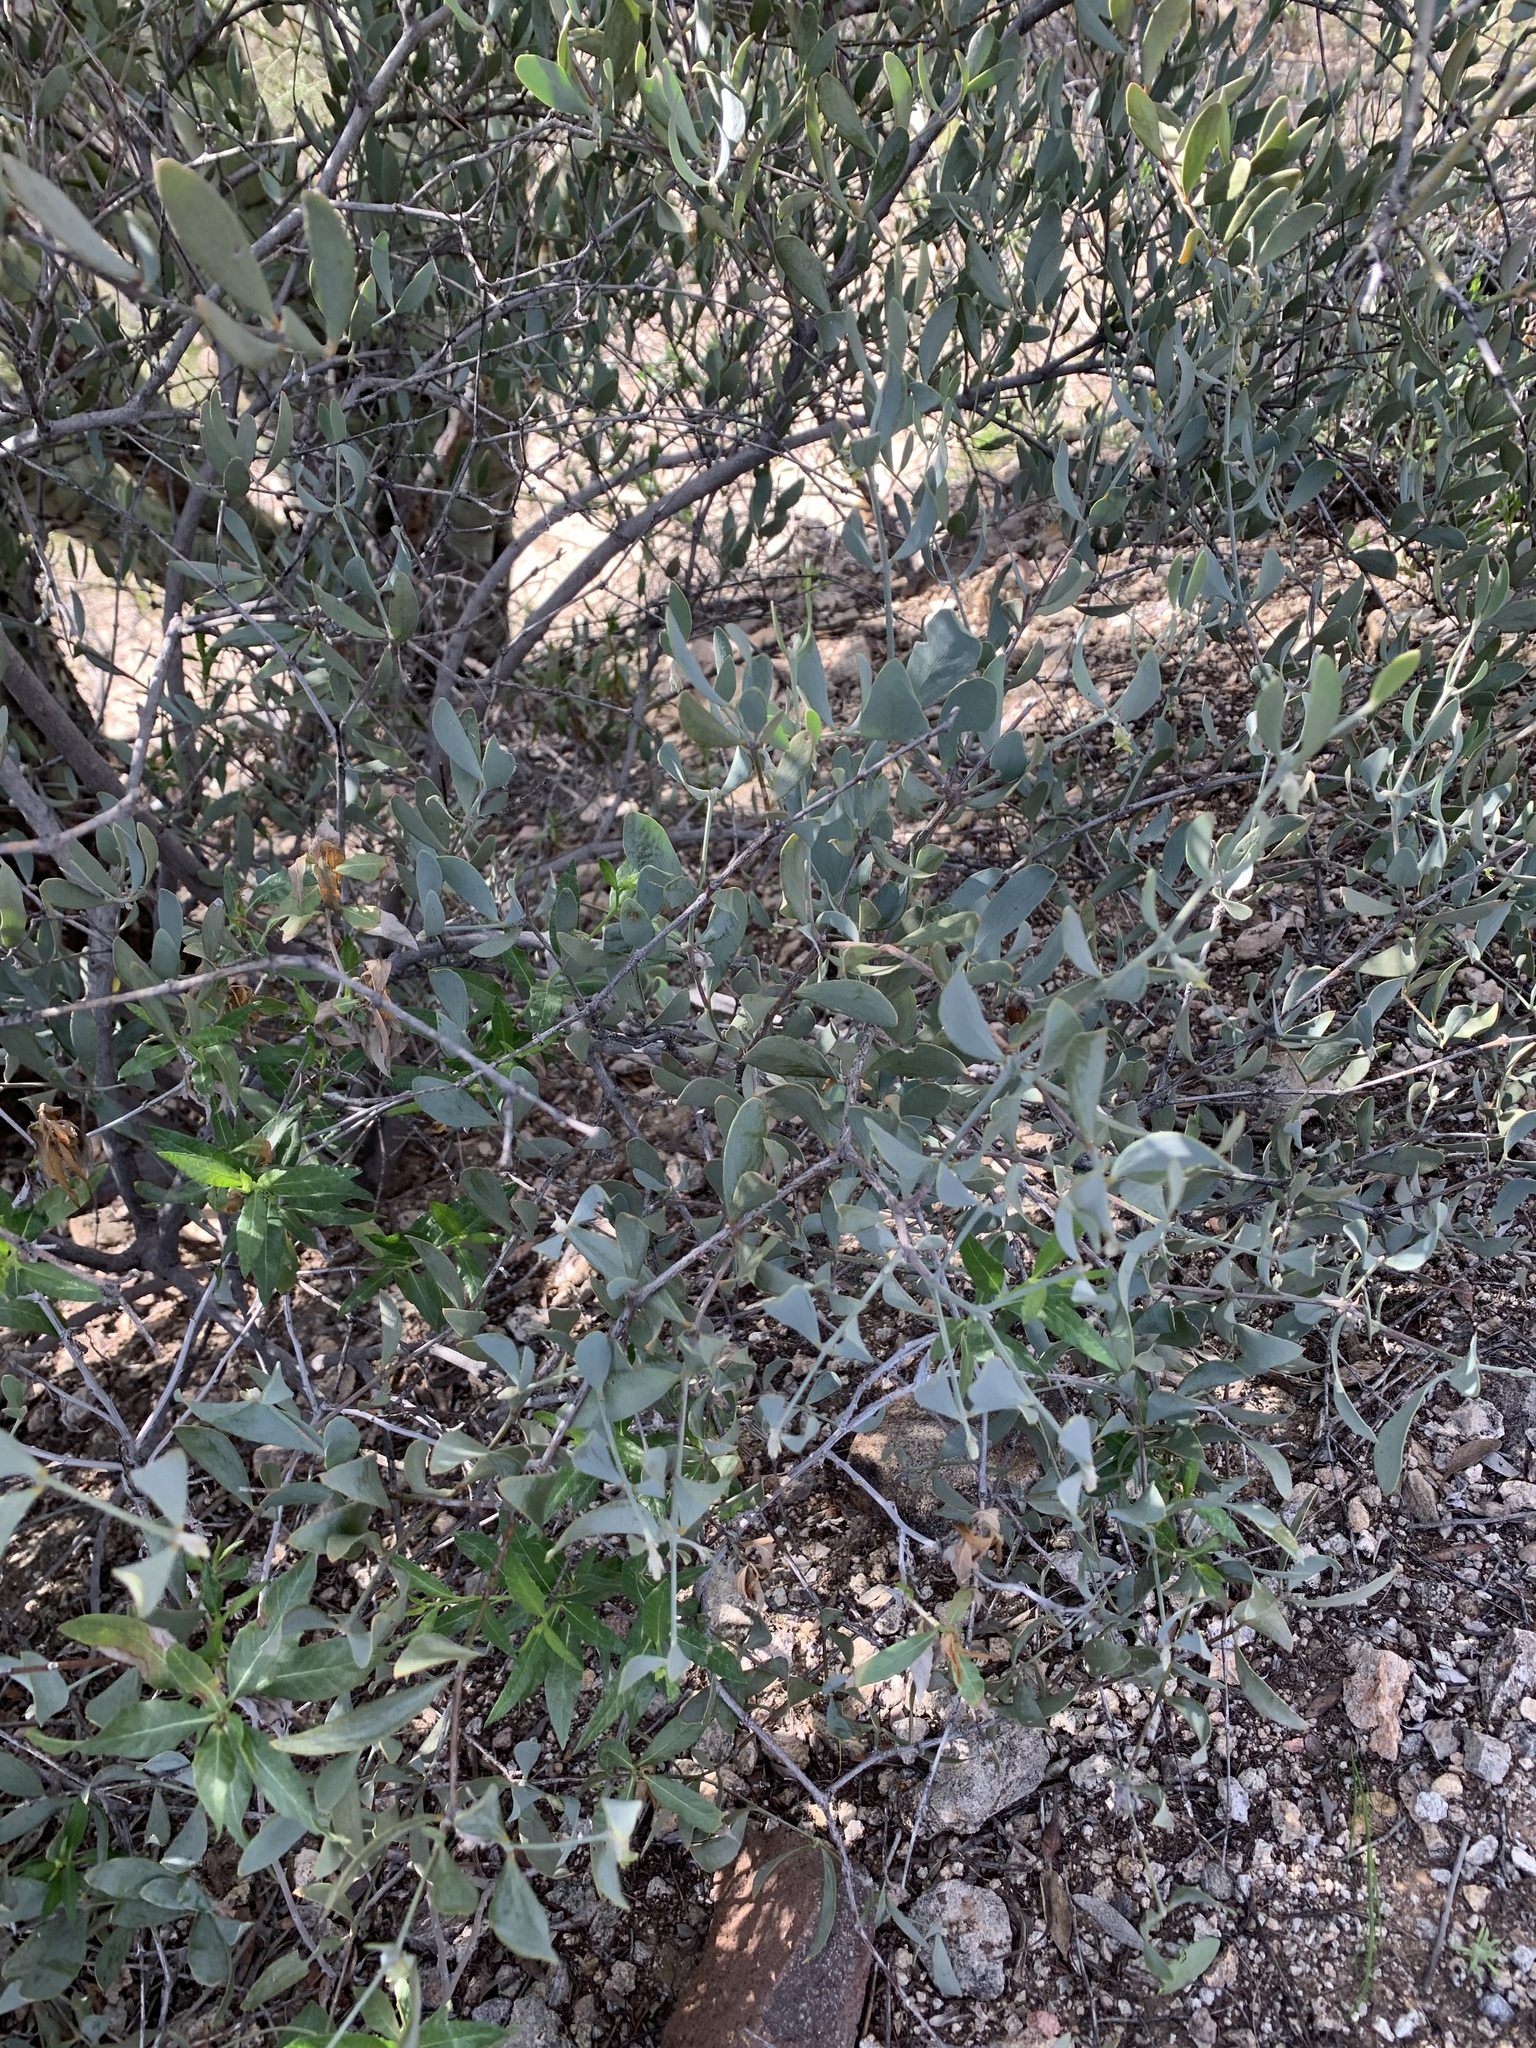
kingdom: Plantae
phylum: Tracheophyta
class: Magnoliopsida
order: Caryophyllales
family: Simmondsiaceae
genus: Simmondsia
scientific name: Simmondsia chinensis
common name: Jojoba
